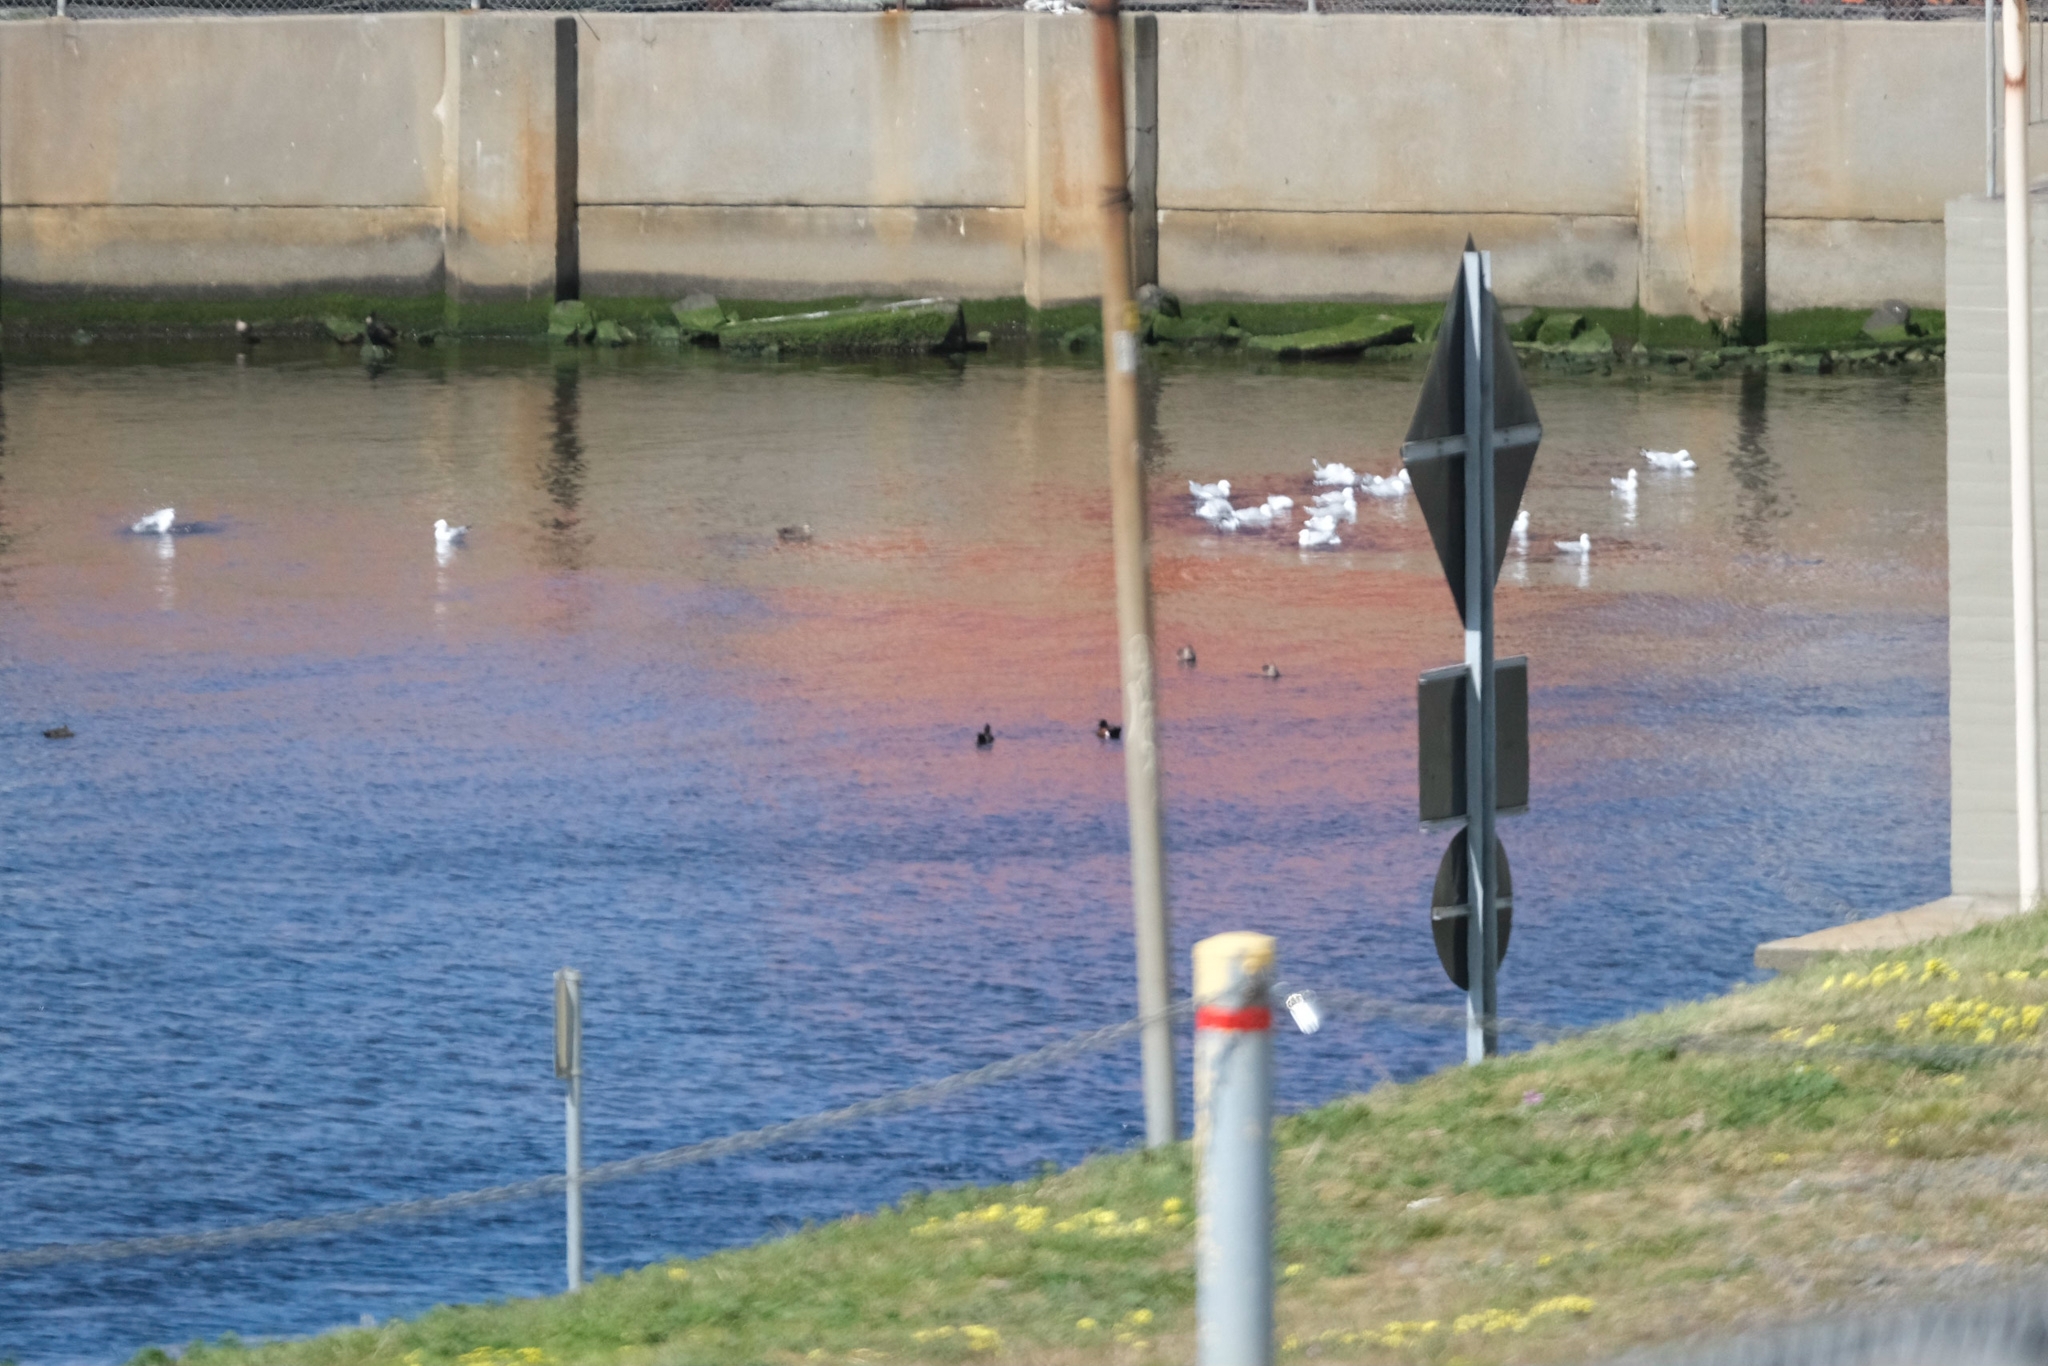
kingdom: Animalia
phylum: Chordata
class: Aves
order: Anseriformes
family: Anatidae
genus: Anas
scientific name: Anas castanea
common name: Chestnut teal
